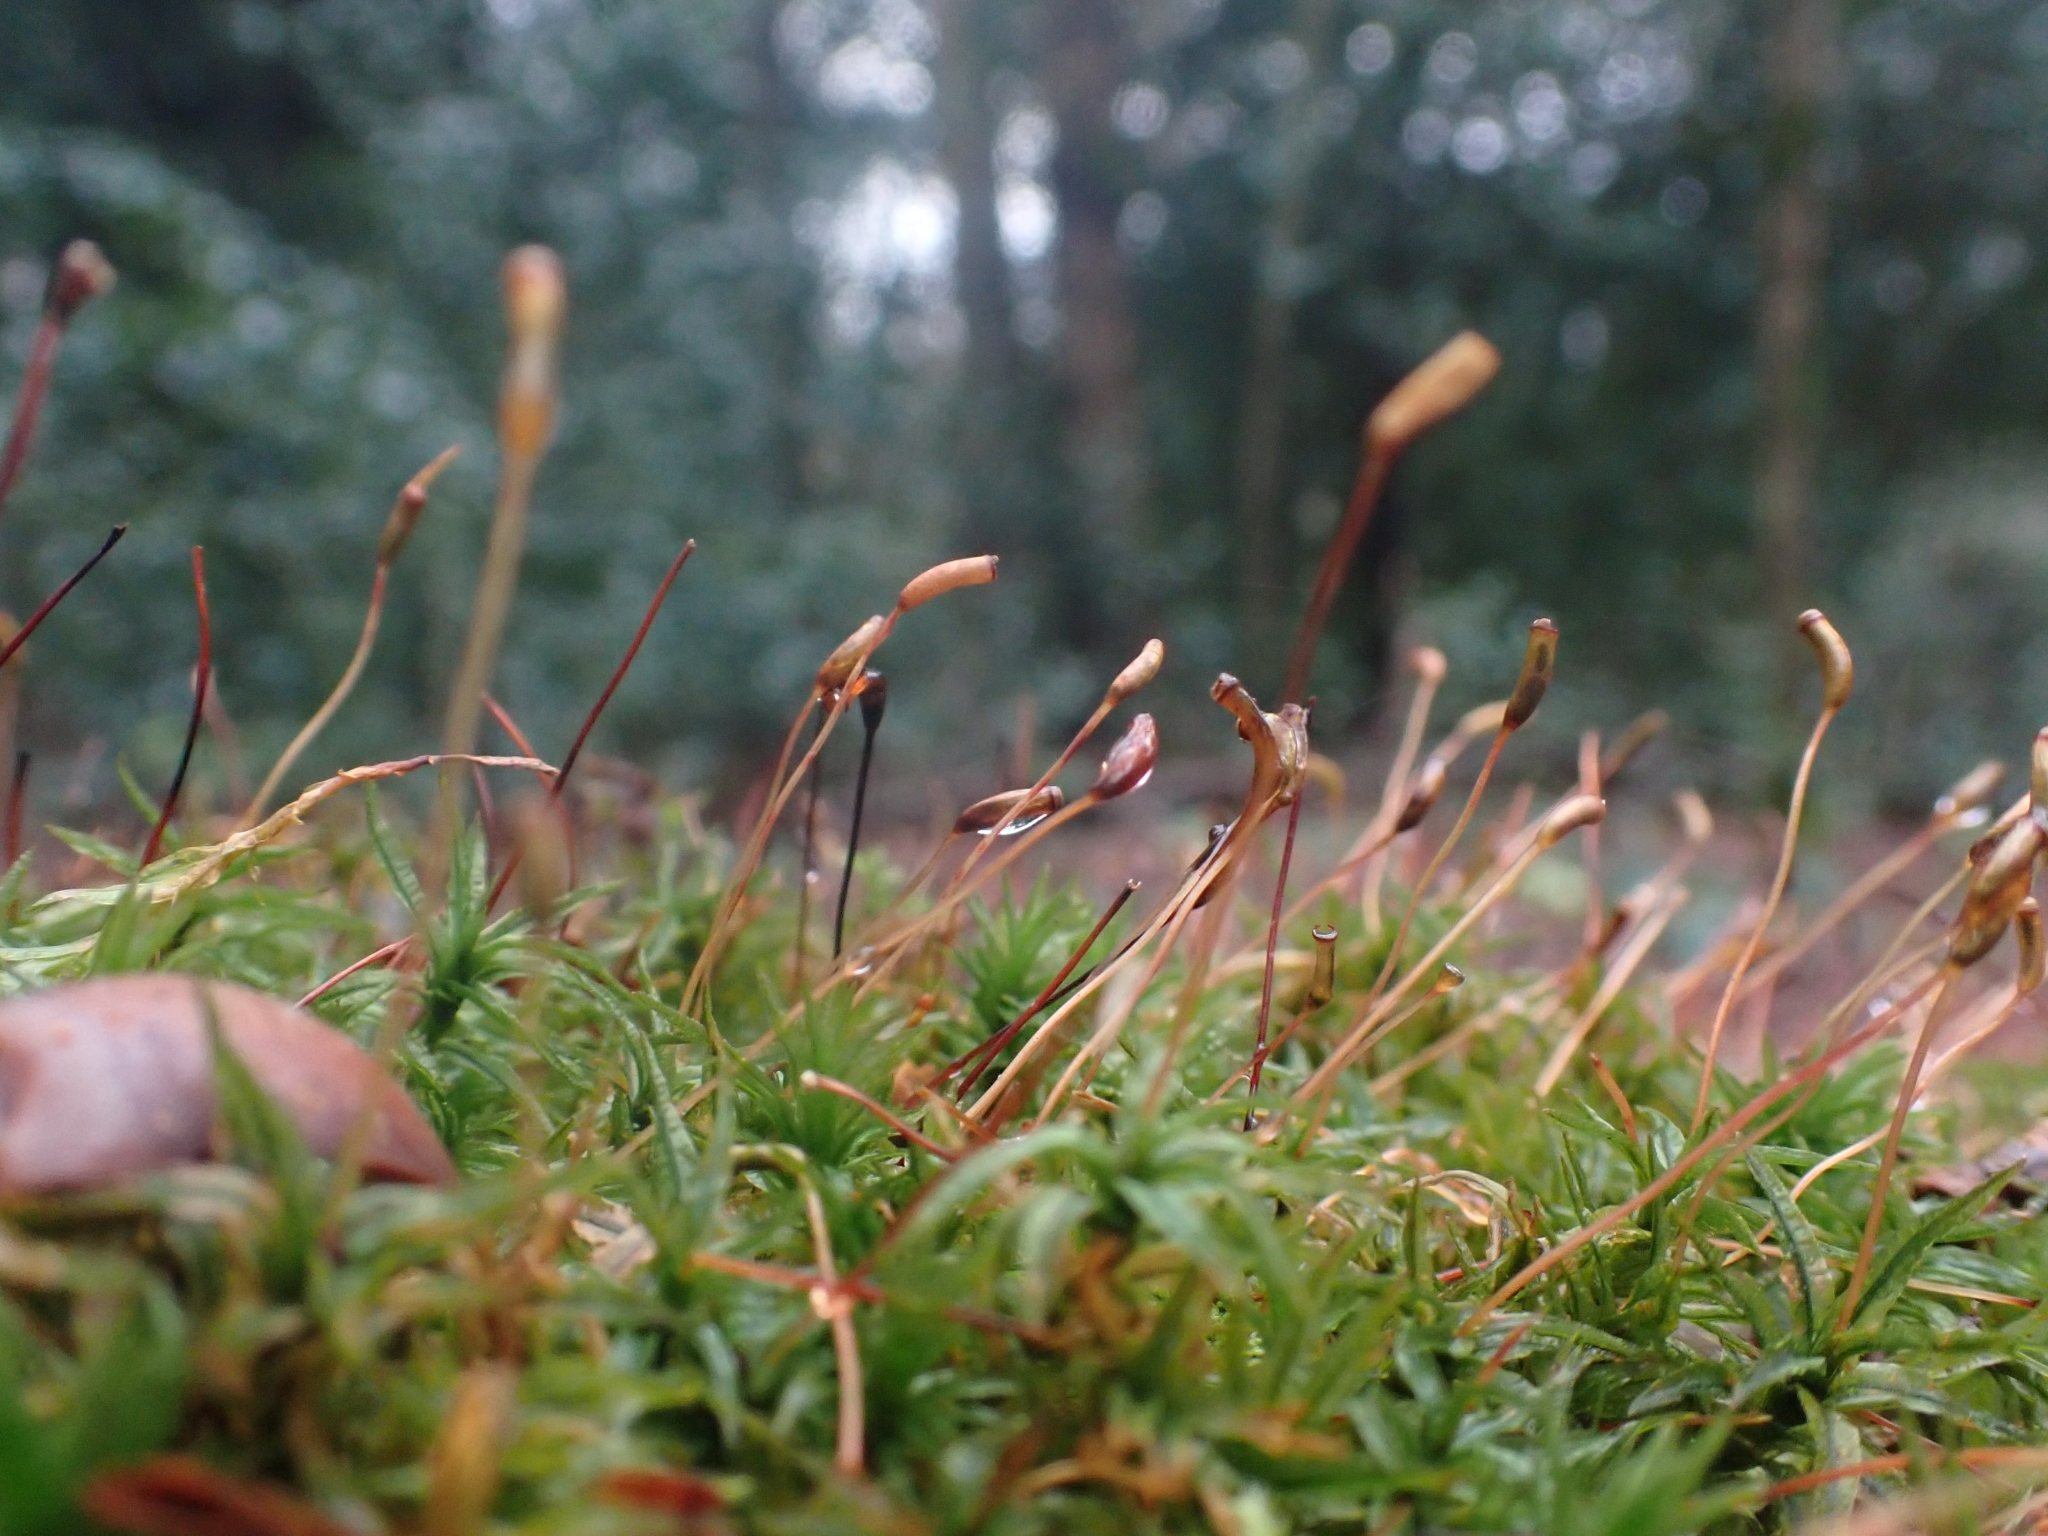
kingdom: Plantae
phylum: Bryophyta
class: Polytrichopsida
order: Polytrichales
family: Polytrichaceae
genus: Atrichum
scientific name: Atrichum undulatum
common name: Common smoothcap
